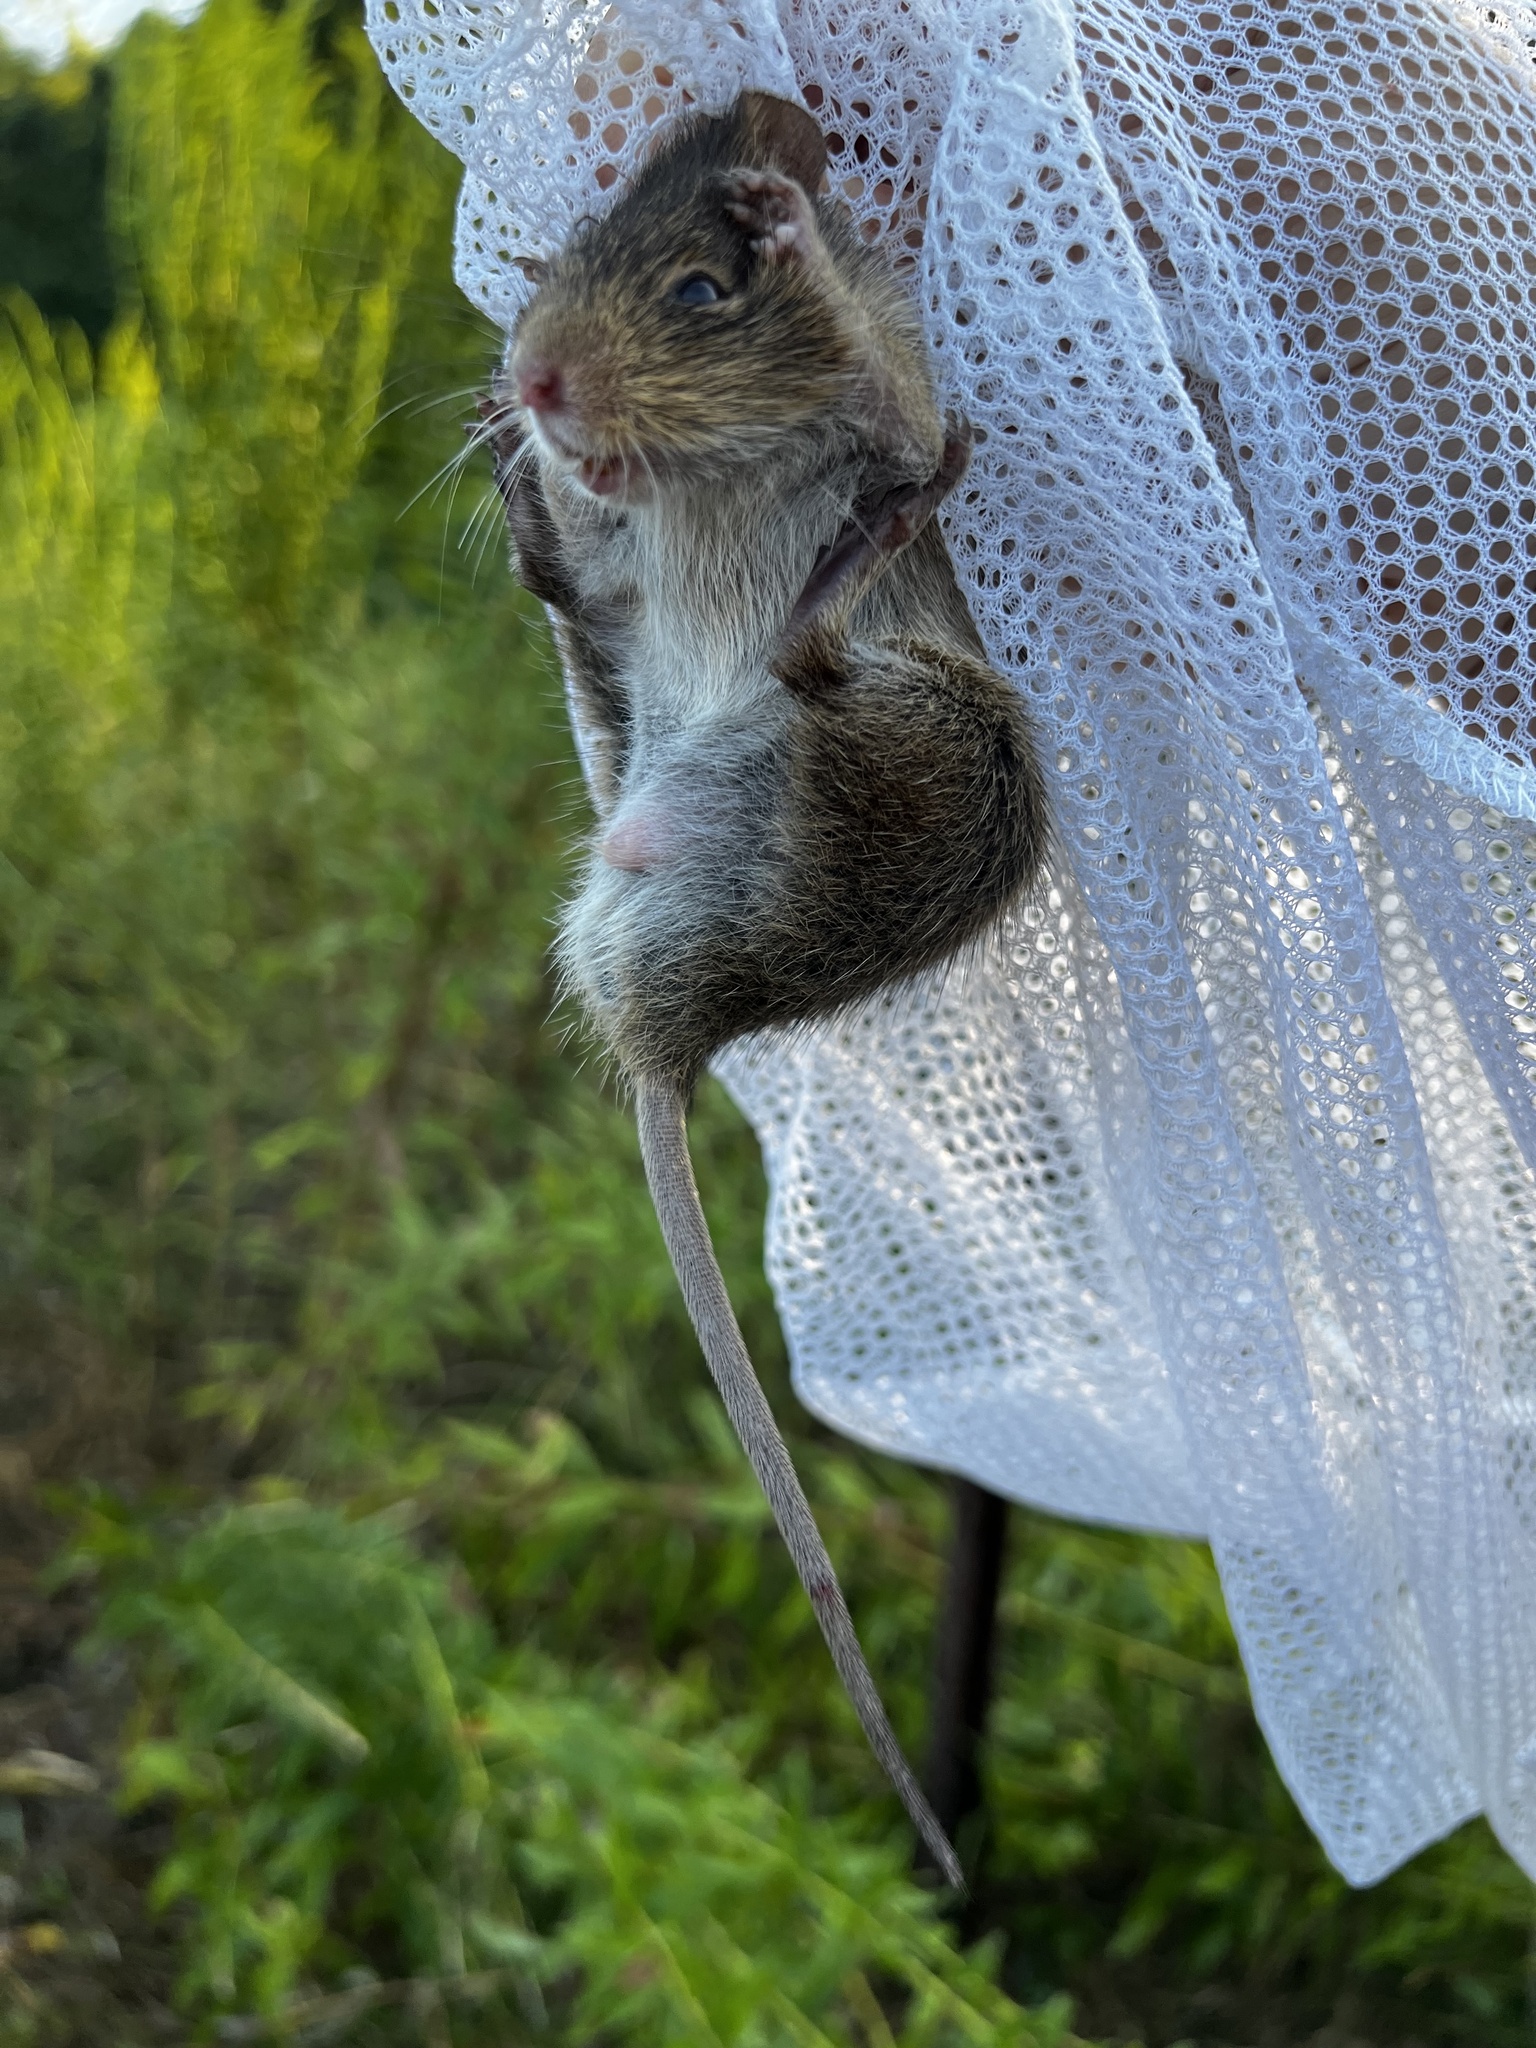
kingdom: Animalia
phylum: Chordata
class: Mammalia
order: Rodentia
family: Cricetidae
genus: Sigmodon
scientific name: Sigmodon hispidus
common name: Hispid cotton rat
